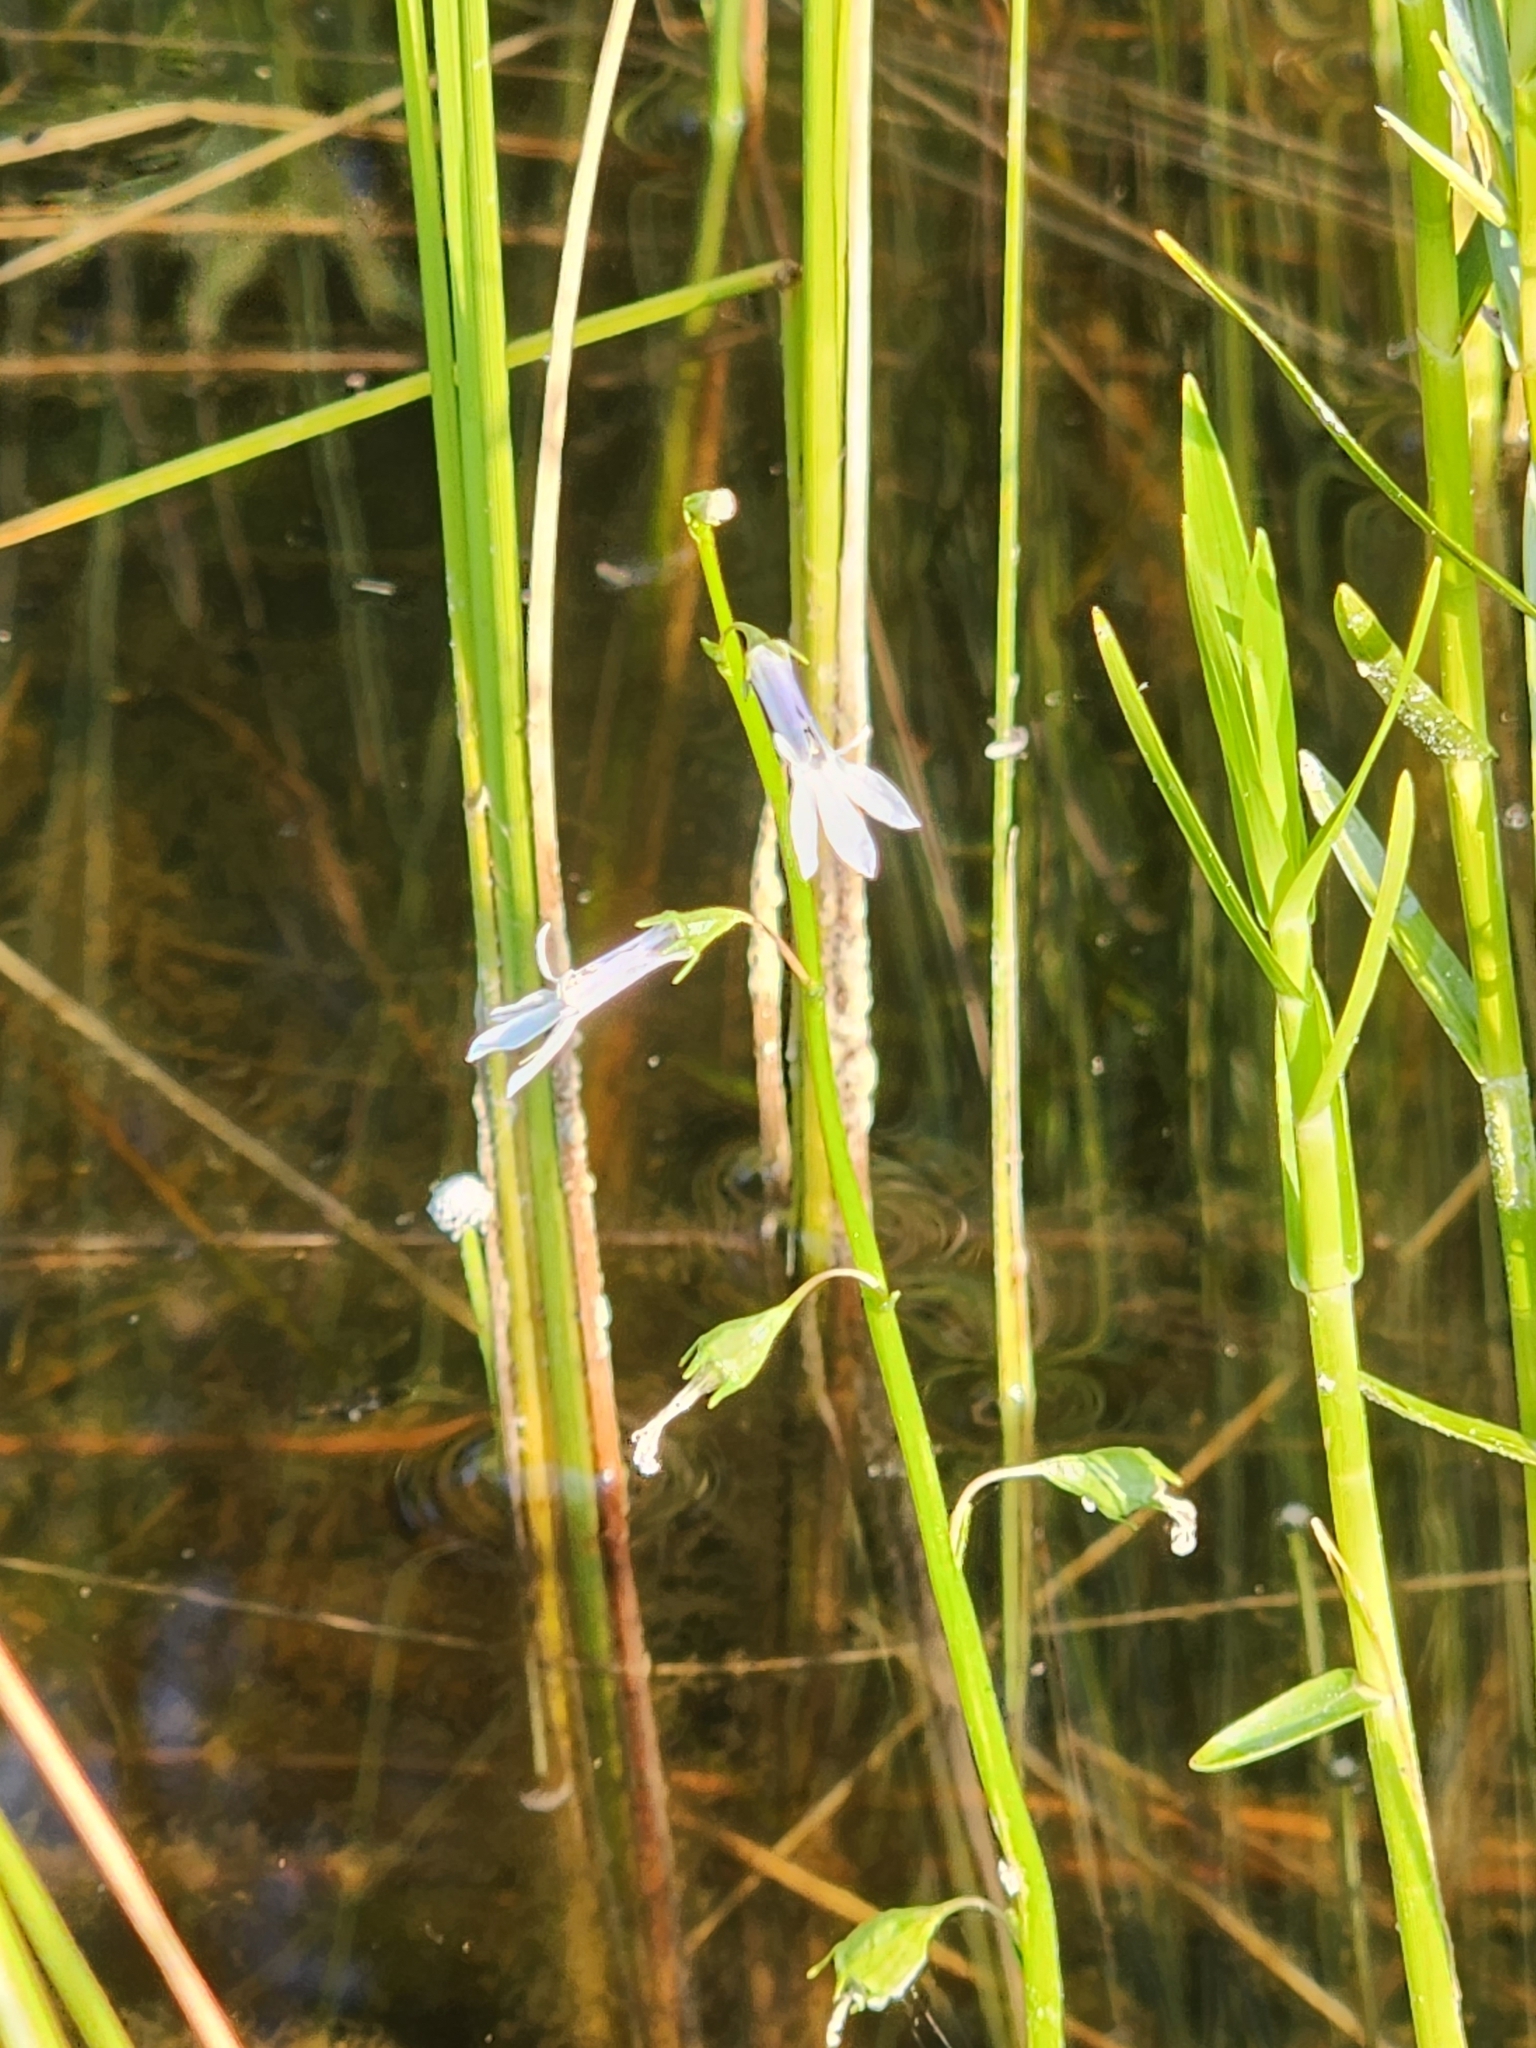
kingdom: Plantae
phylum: Tracheophyta
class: Magnoliopsida
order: Asterales
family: Campanulaceae
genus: Lobelia
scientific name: Lobelia dortmanna
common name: Water lobelia
